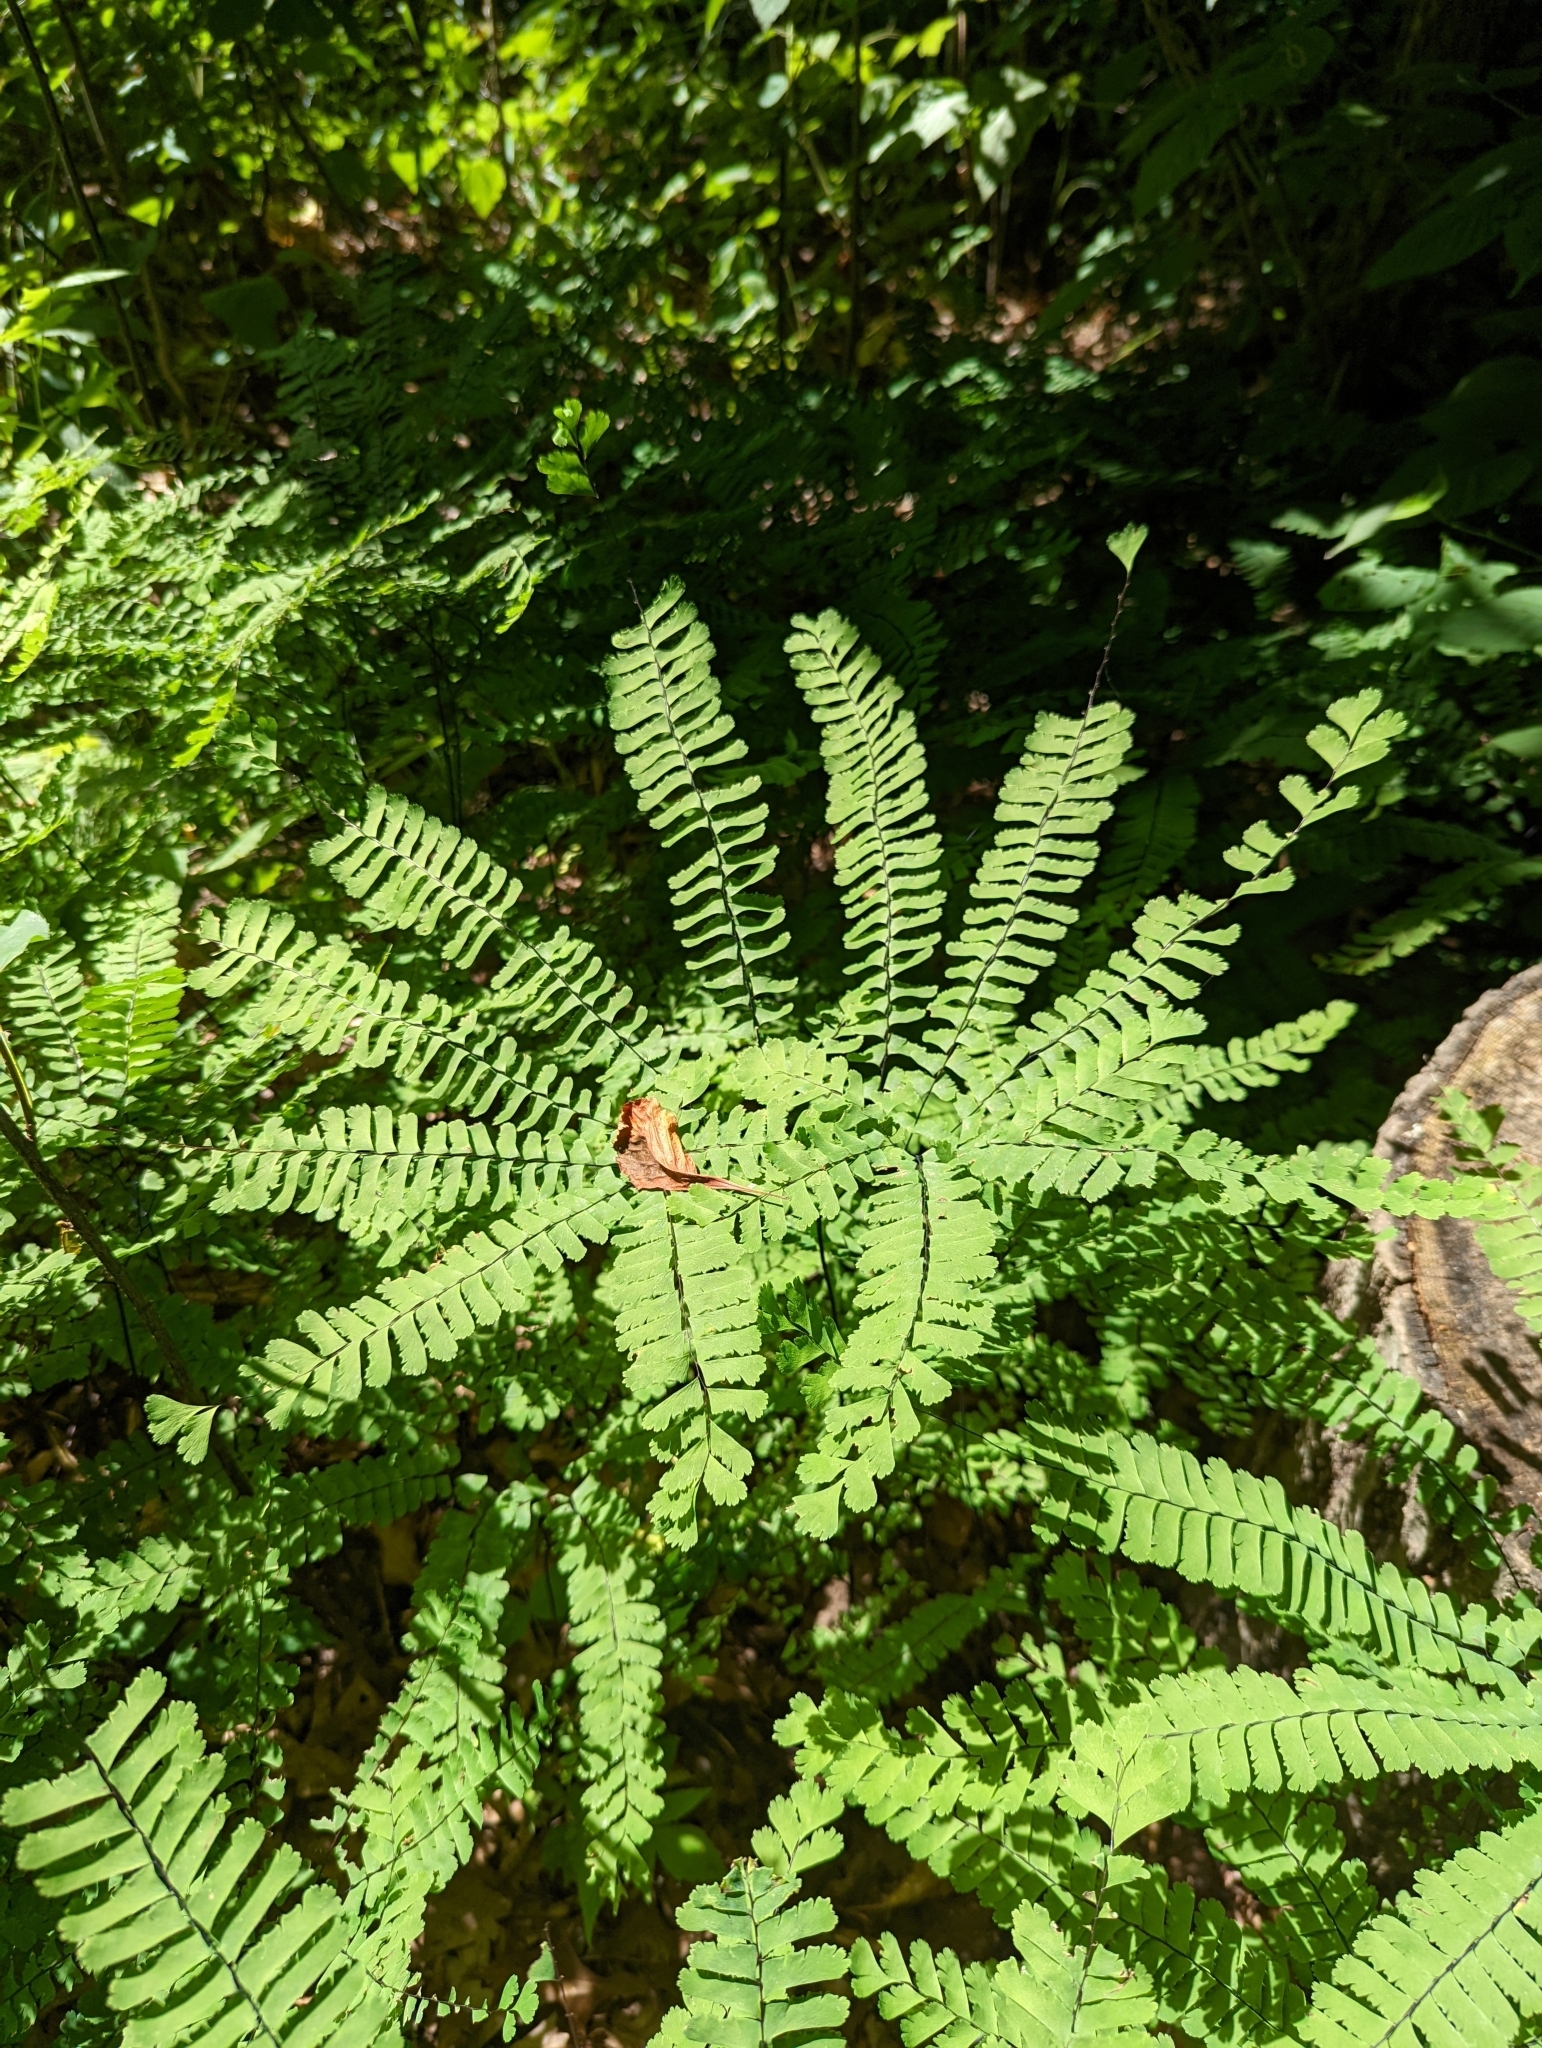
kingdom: Plantae
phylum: Tracheophyta
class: Polypodiopsida
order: Polypodiales
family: Pteridaceae
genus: Adiantum
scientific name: Adiantum pedatum
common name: Five-finger fern
